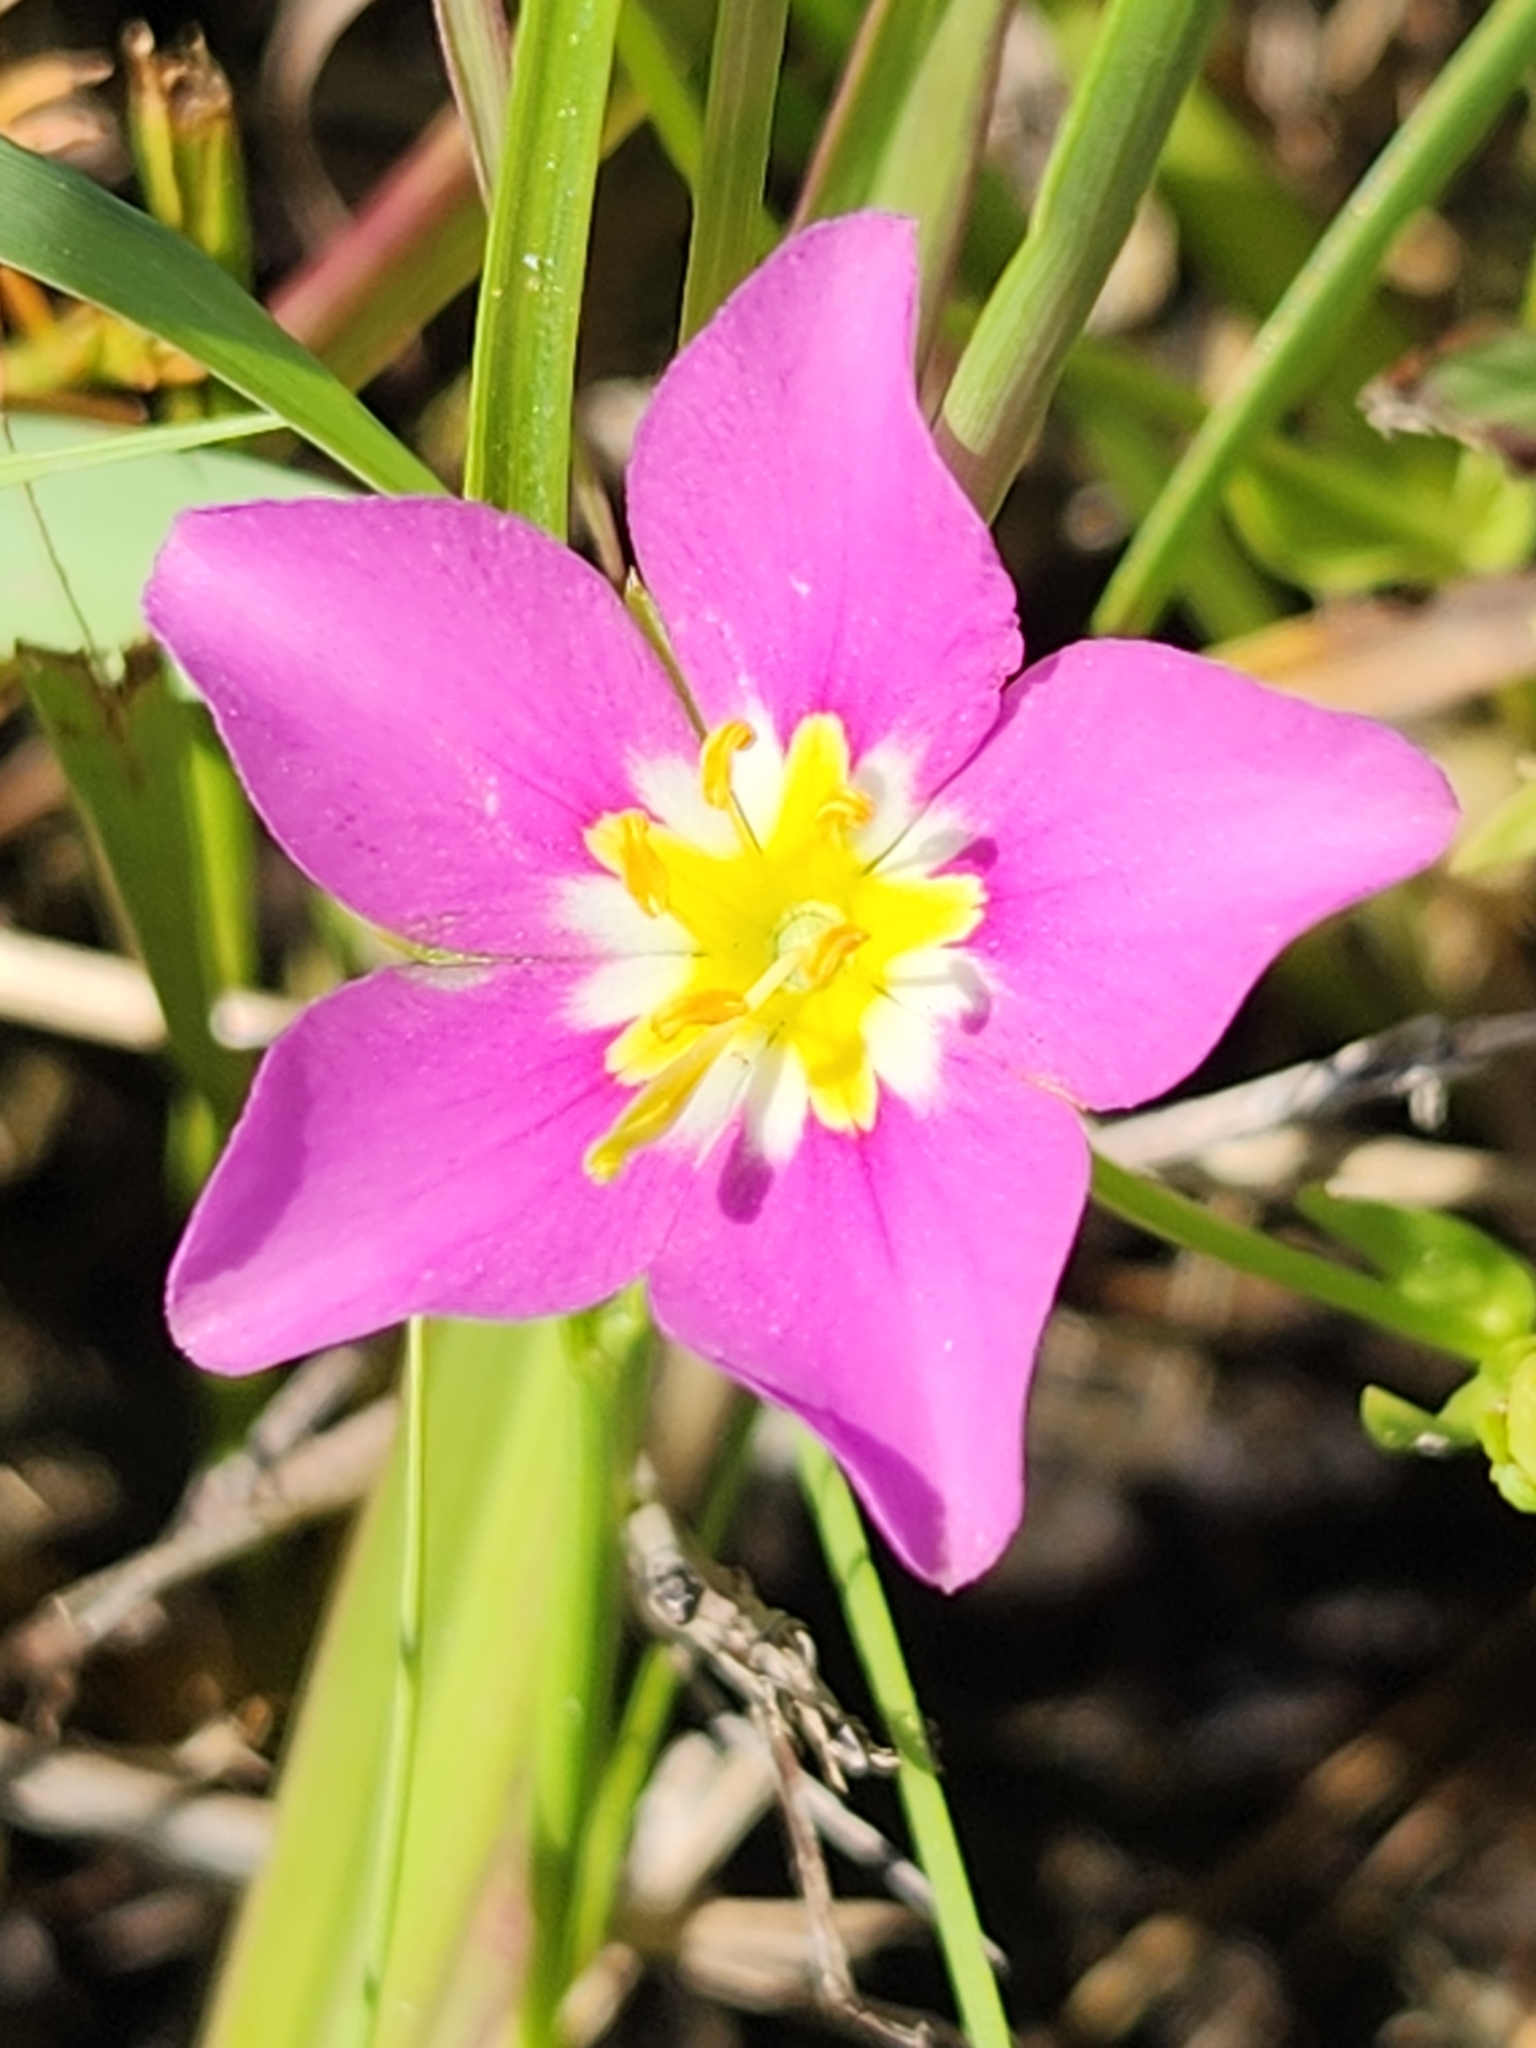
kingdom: Plantae
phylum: Tracheophyta
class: Magnoliopsida
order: Gentianales
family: Gentianaceae
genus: Sabatia
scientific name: Sabatia campestris
